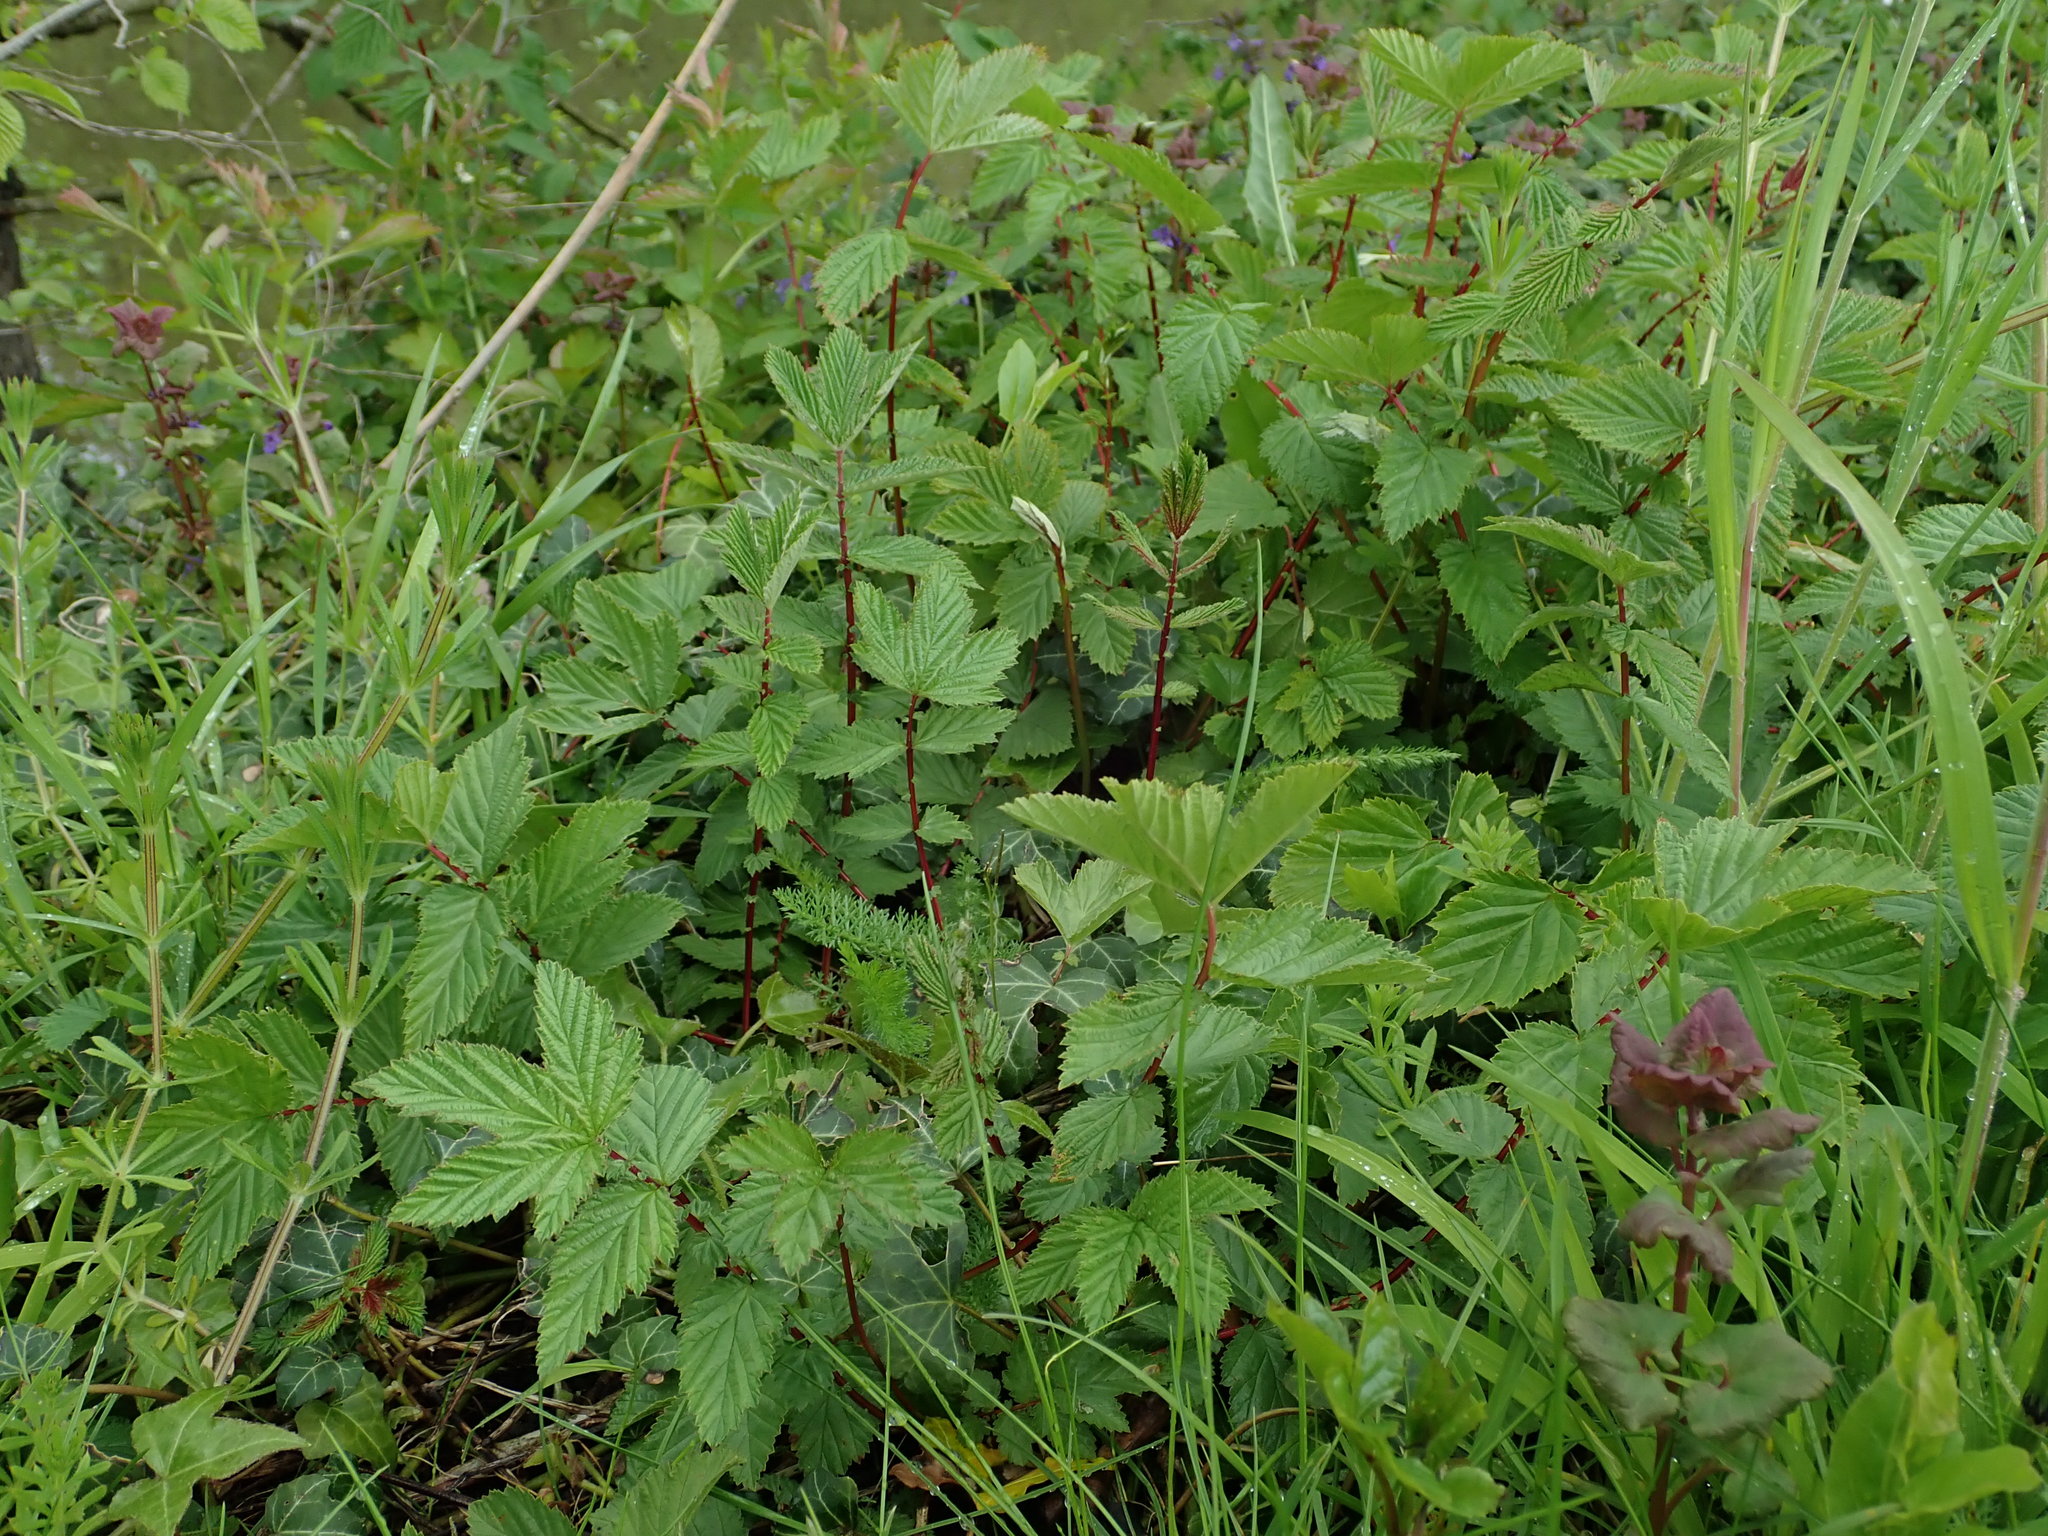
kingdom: Plantae
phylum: Tracheophyta
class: Magnoliopsida
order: Rosales
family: Rosaceae
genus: Filipendula
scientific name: Filipendula ulmaria
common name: Meadowsweet
